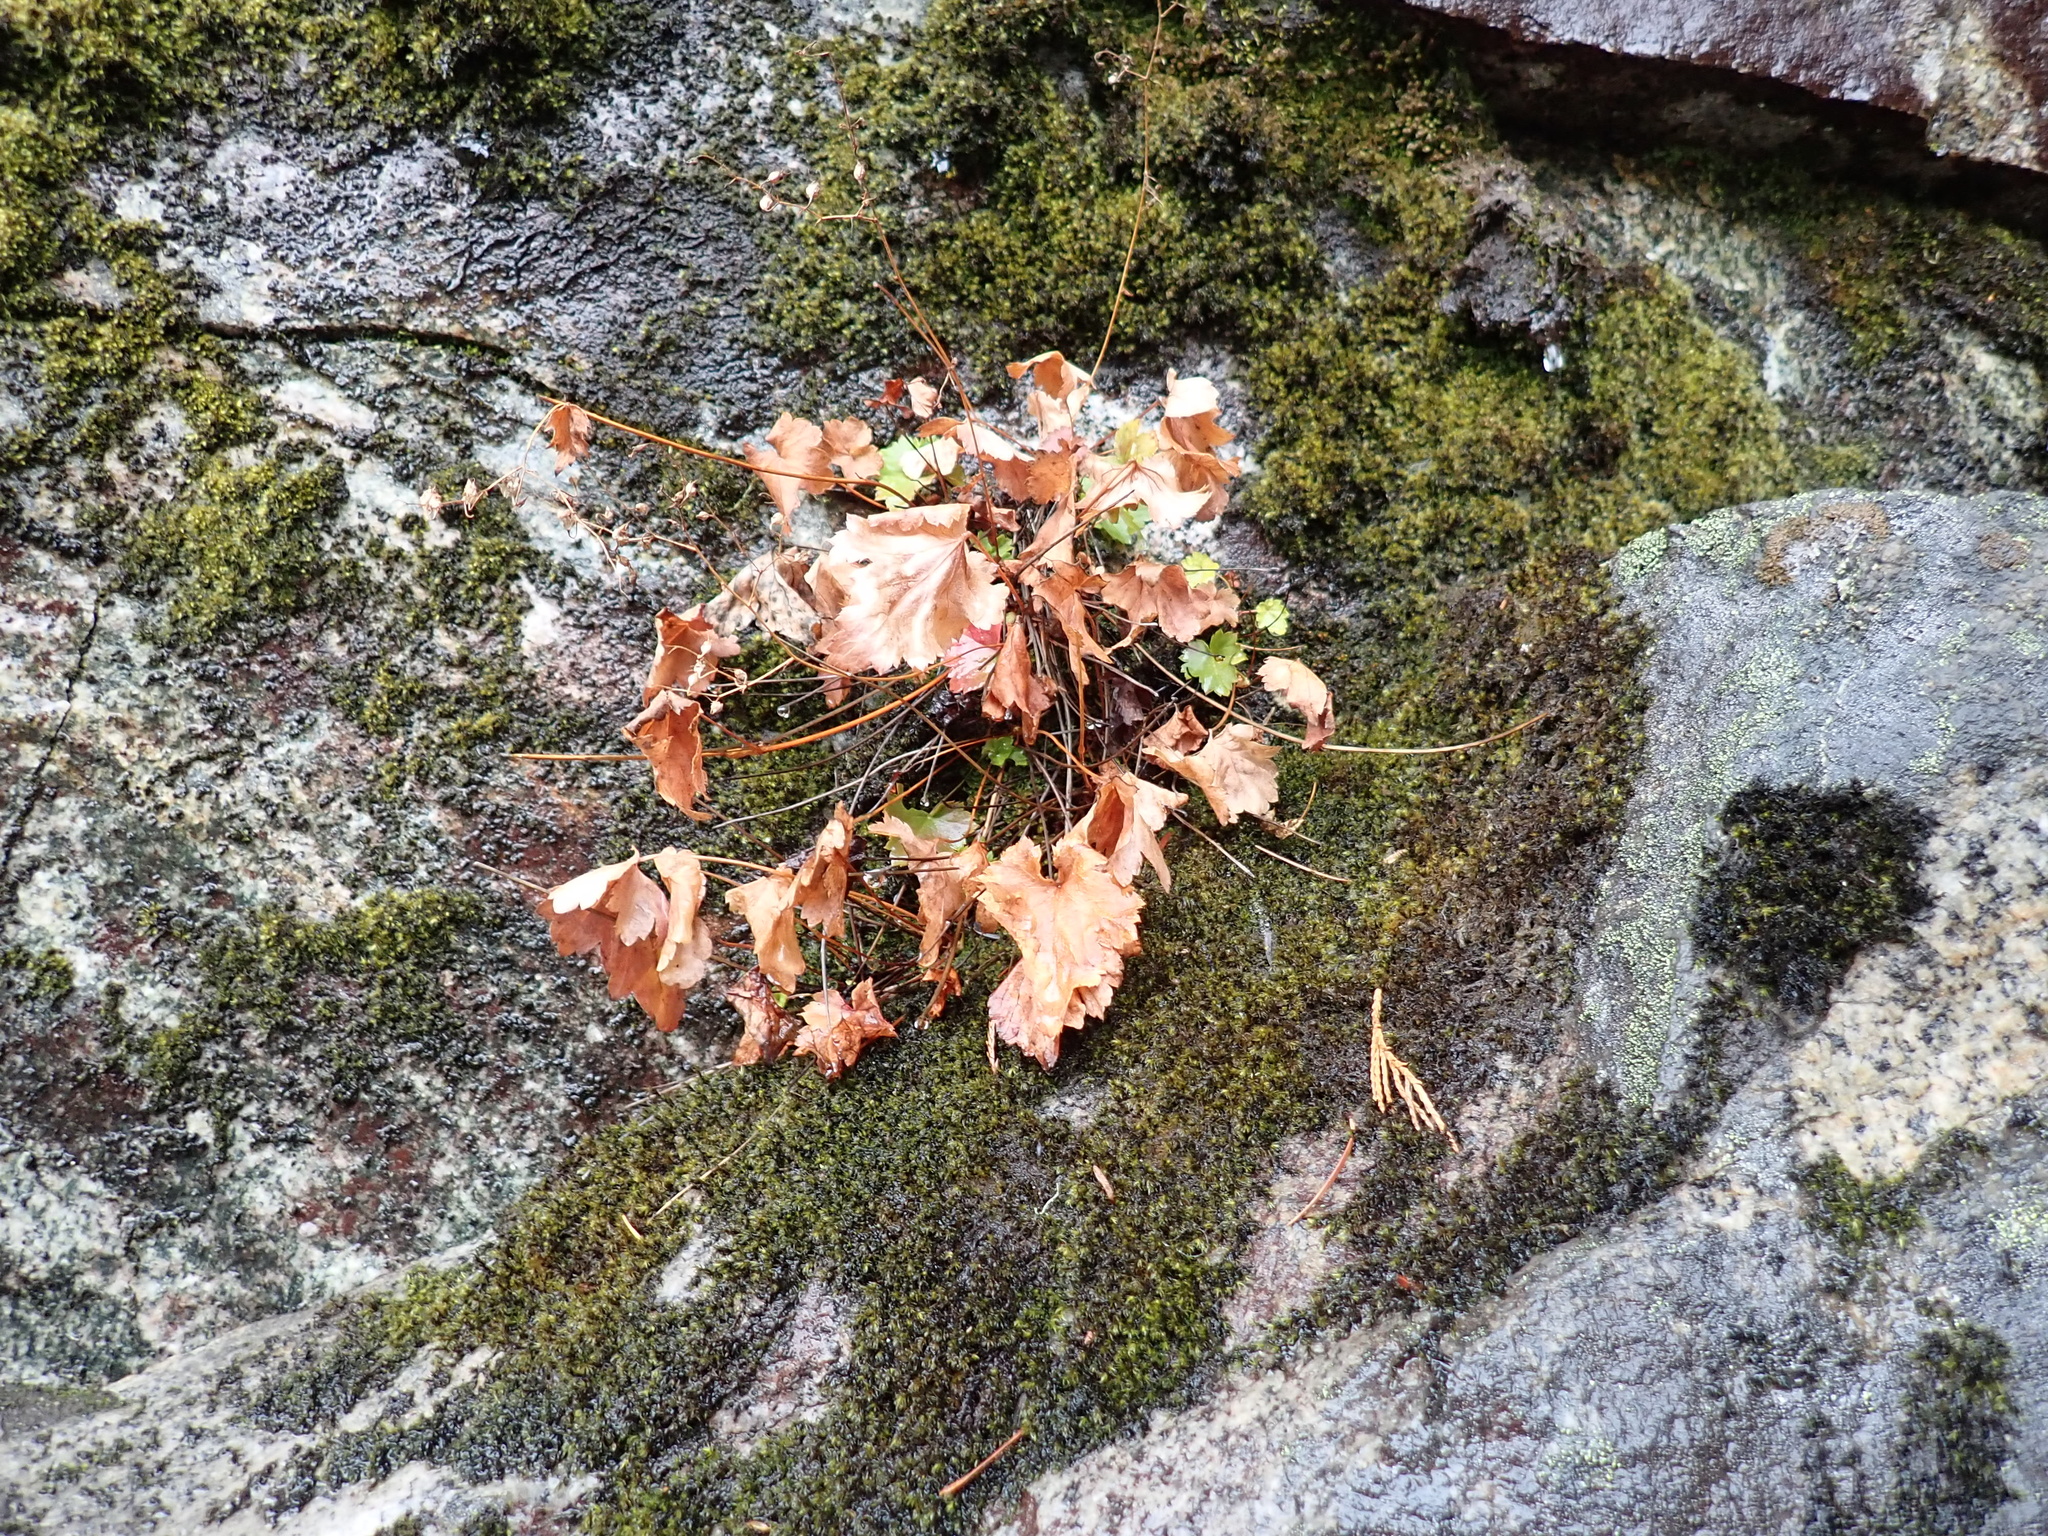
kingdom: Plantae
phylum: Tracheophyta
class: Magnoliopsida
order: Saxifragales
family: Saxifragaceae
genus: Heuchera
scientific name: Heuchera glabra
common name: Alpine alumroot
